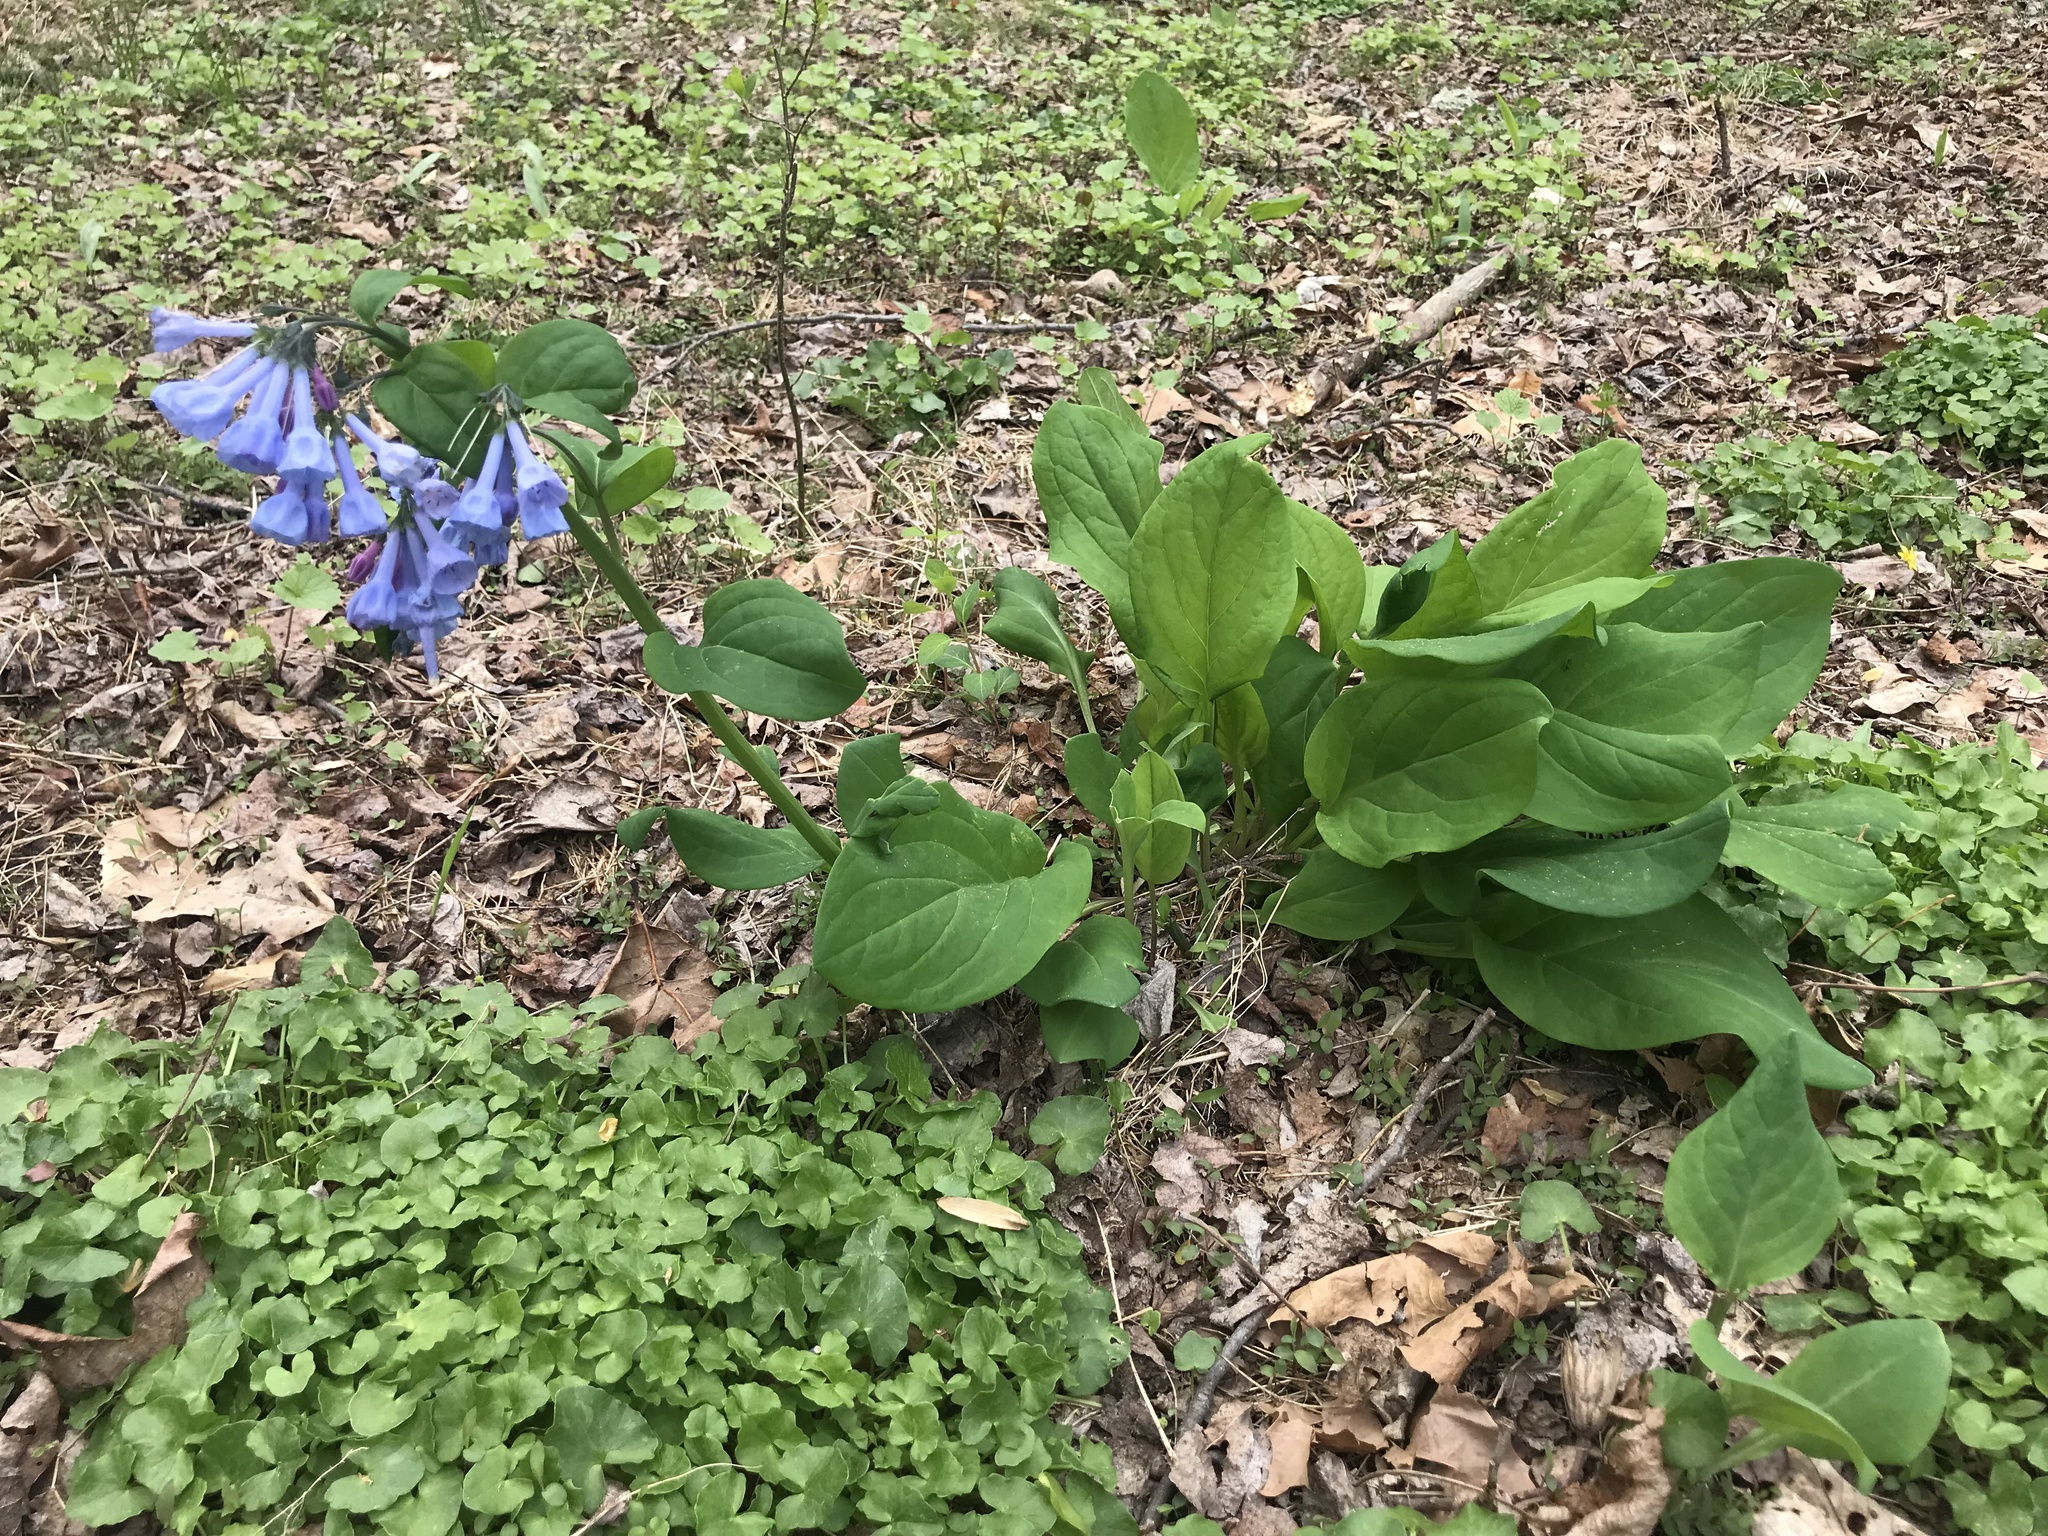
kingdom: Plantae
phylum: Tracheophyta
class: Magnoliopsida
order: Boraginales
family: Boraginaceae
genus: Mertensia
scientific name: Mertensia virginica
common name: Virginia bluebells
